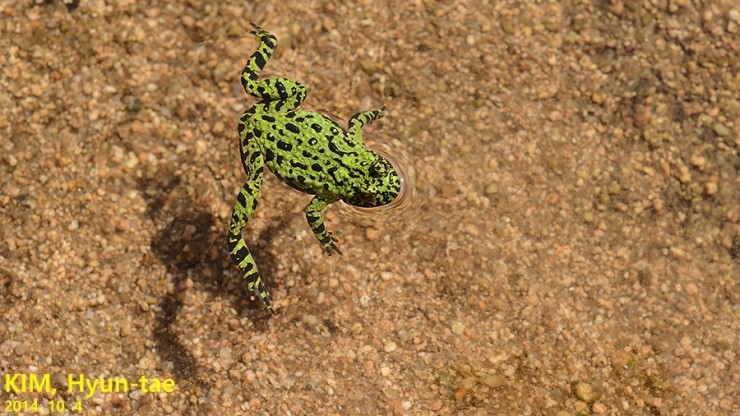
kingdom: Animalia
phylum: Chordata
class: Amphibia
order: Anura
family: Bombinatoridae
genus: Bombina
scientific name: Bombina orientalis
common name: Oriental firebelly toad
